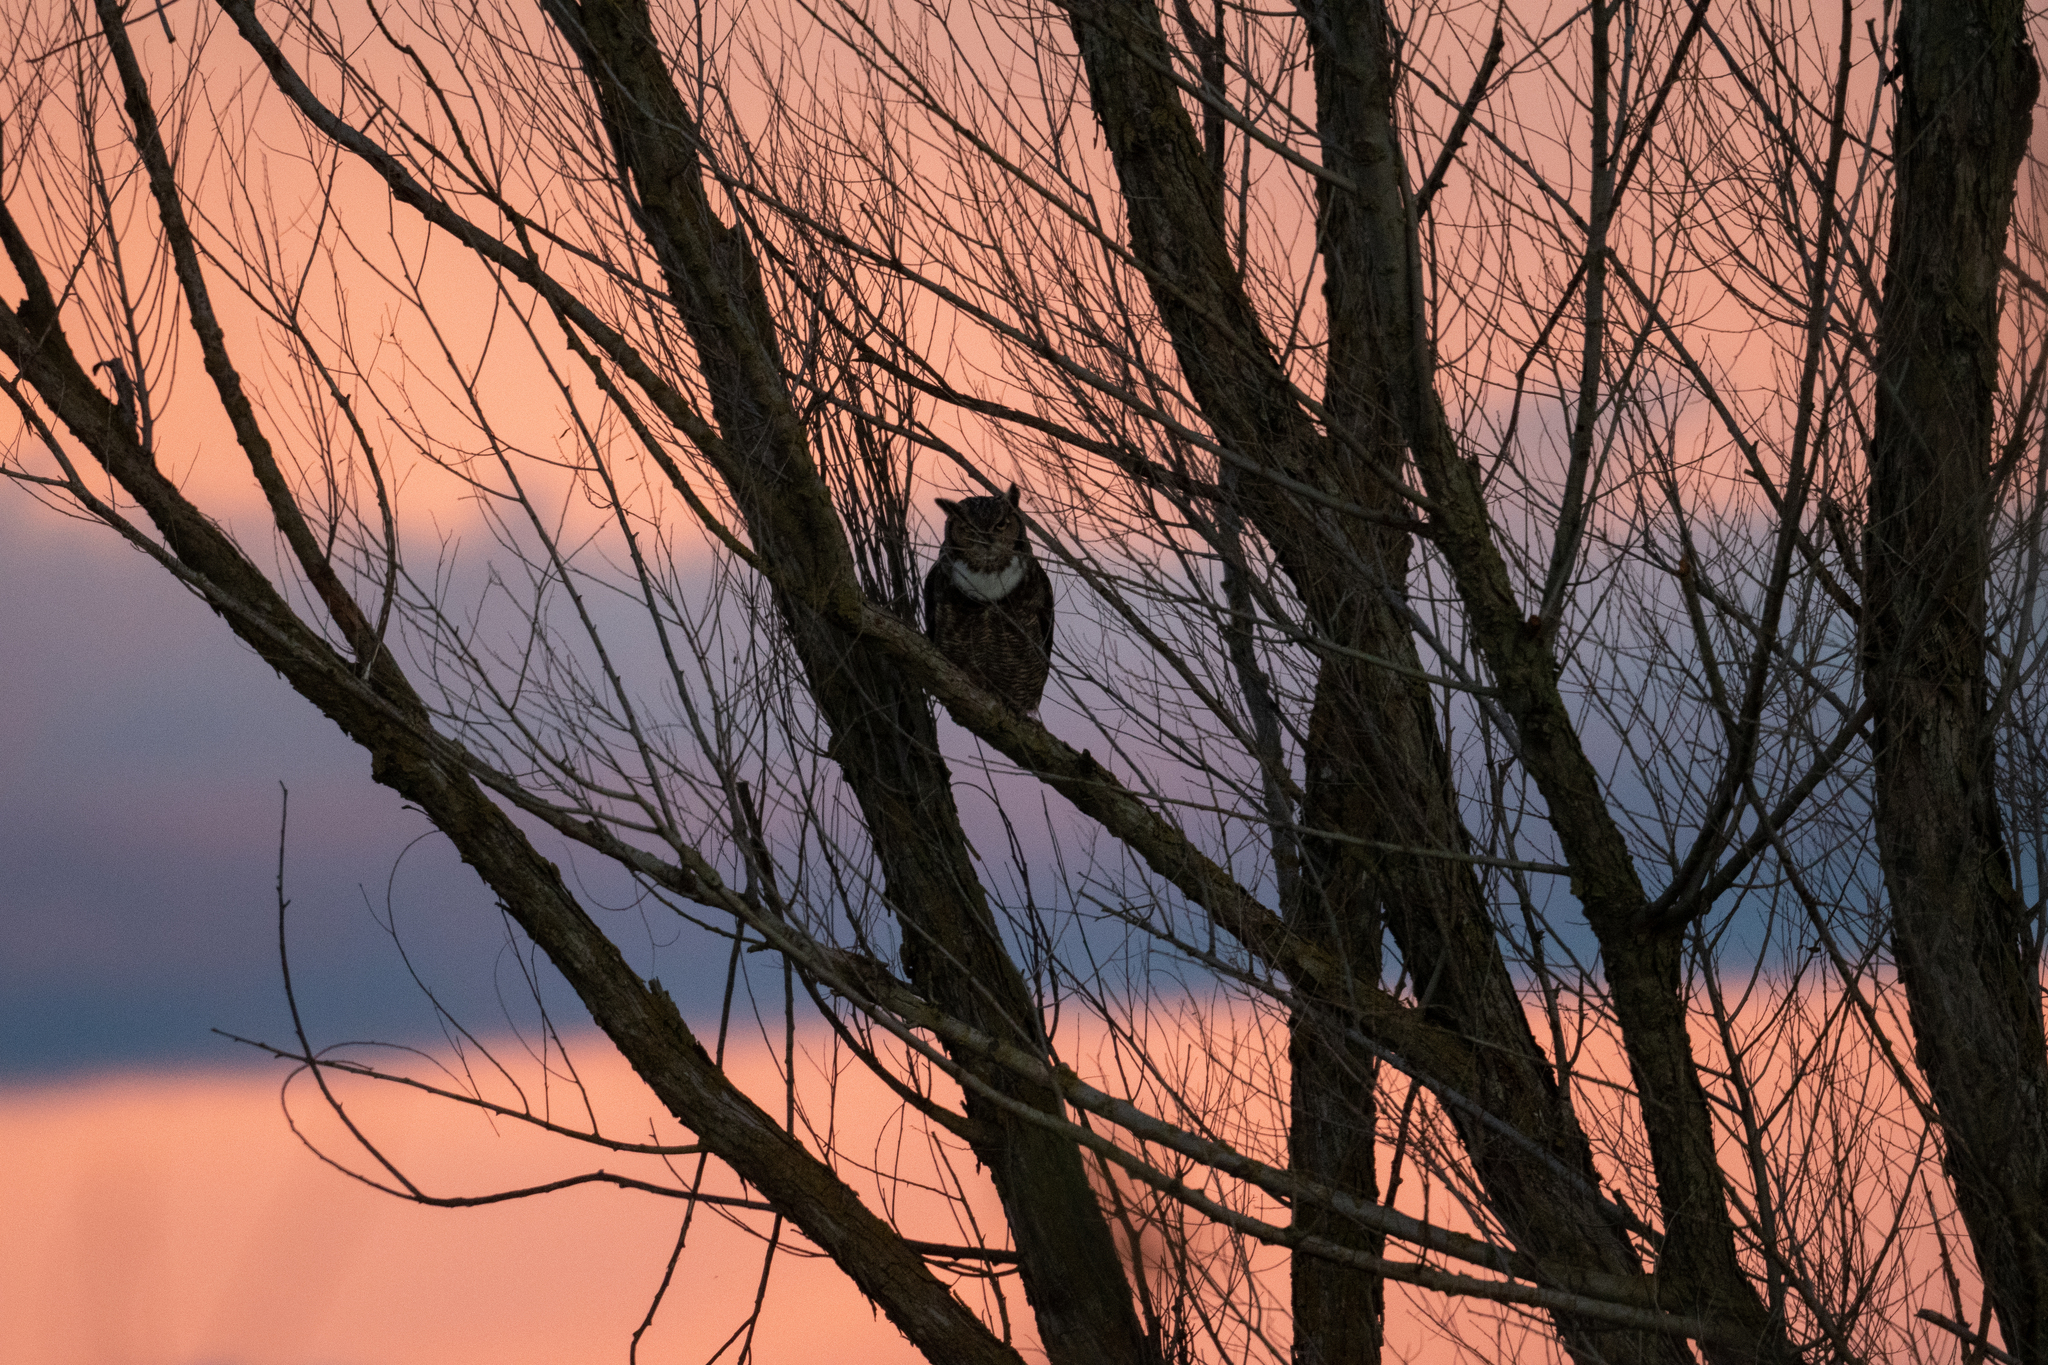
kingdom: Animalia
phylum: Chordata
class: Aves
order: Strigiformes
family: Strigidae
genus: Bubo
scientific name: Bubo virginianus
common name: Great horned owl
